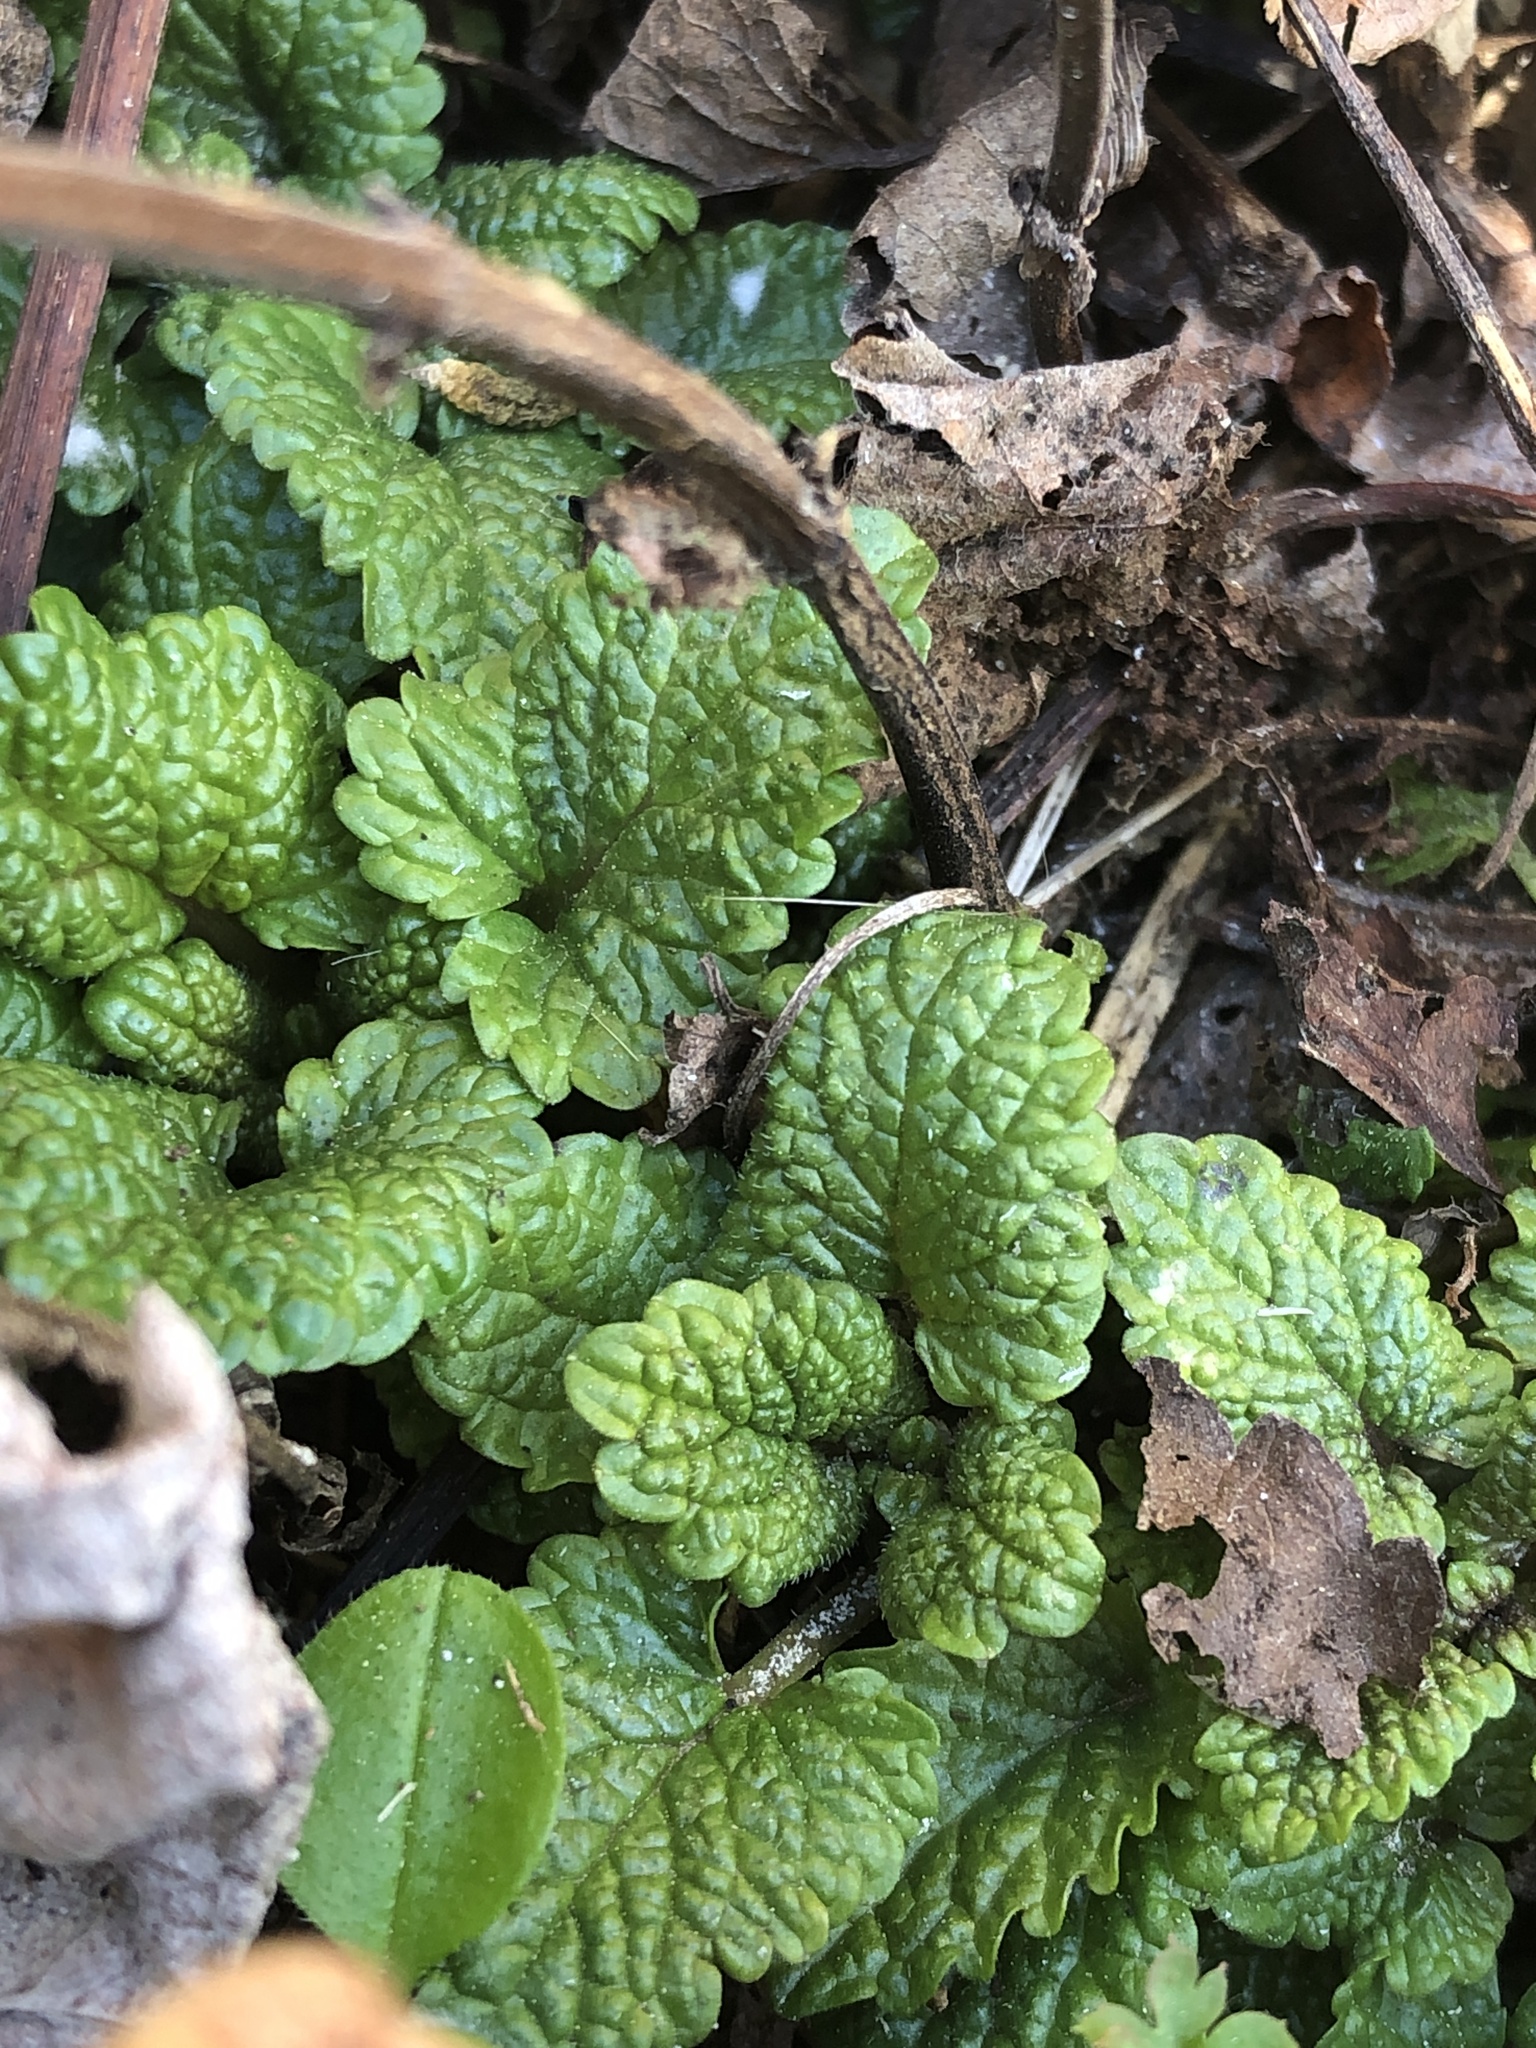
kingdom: Plantae
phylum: Tracheophyta
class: Magnoliopsida
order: Lamiales
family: Lamiaceae
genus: Melissa
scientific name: Melissa officinalis
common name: Balm
